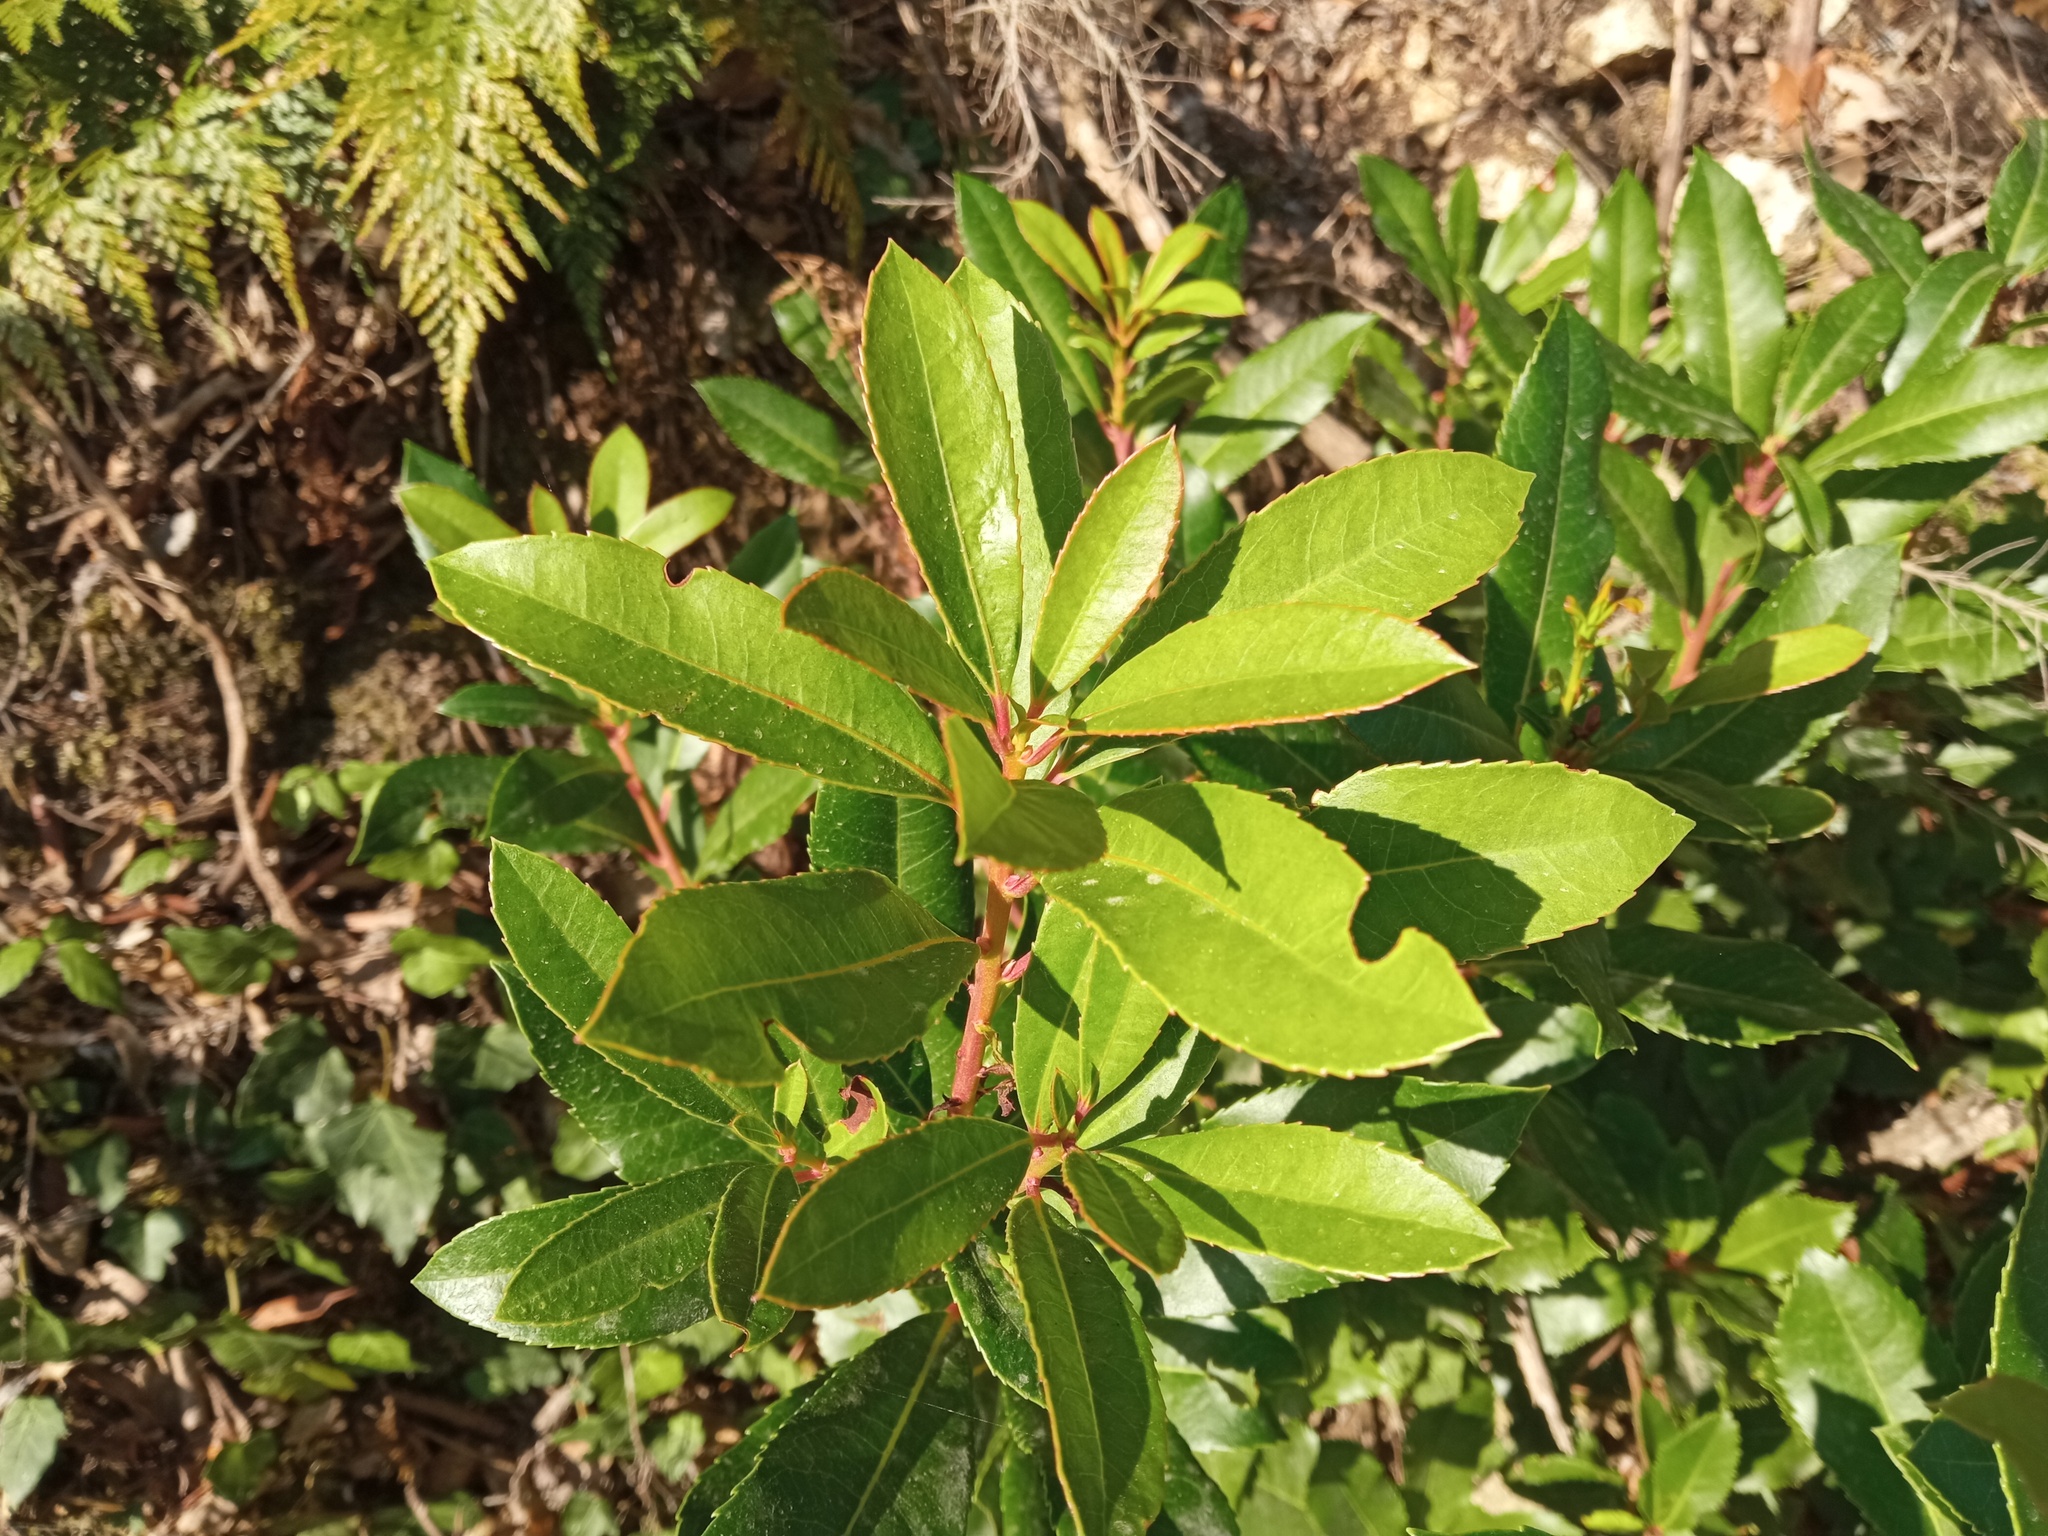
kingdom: Plantae
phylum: Tracheophyta
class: Magnoliopsida
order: Ericales
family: Ericaceae
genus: Arbutus
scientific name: Arbutus unedo
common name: Strawberry-tree
